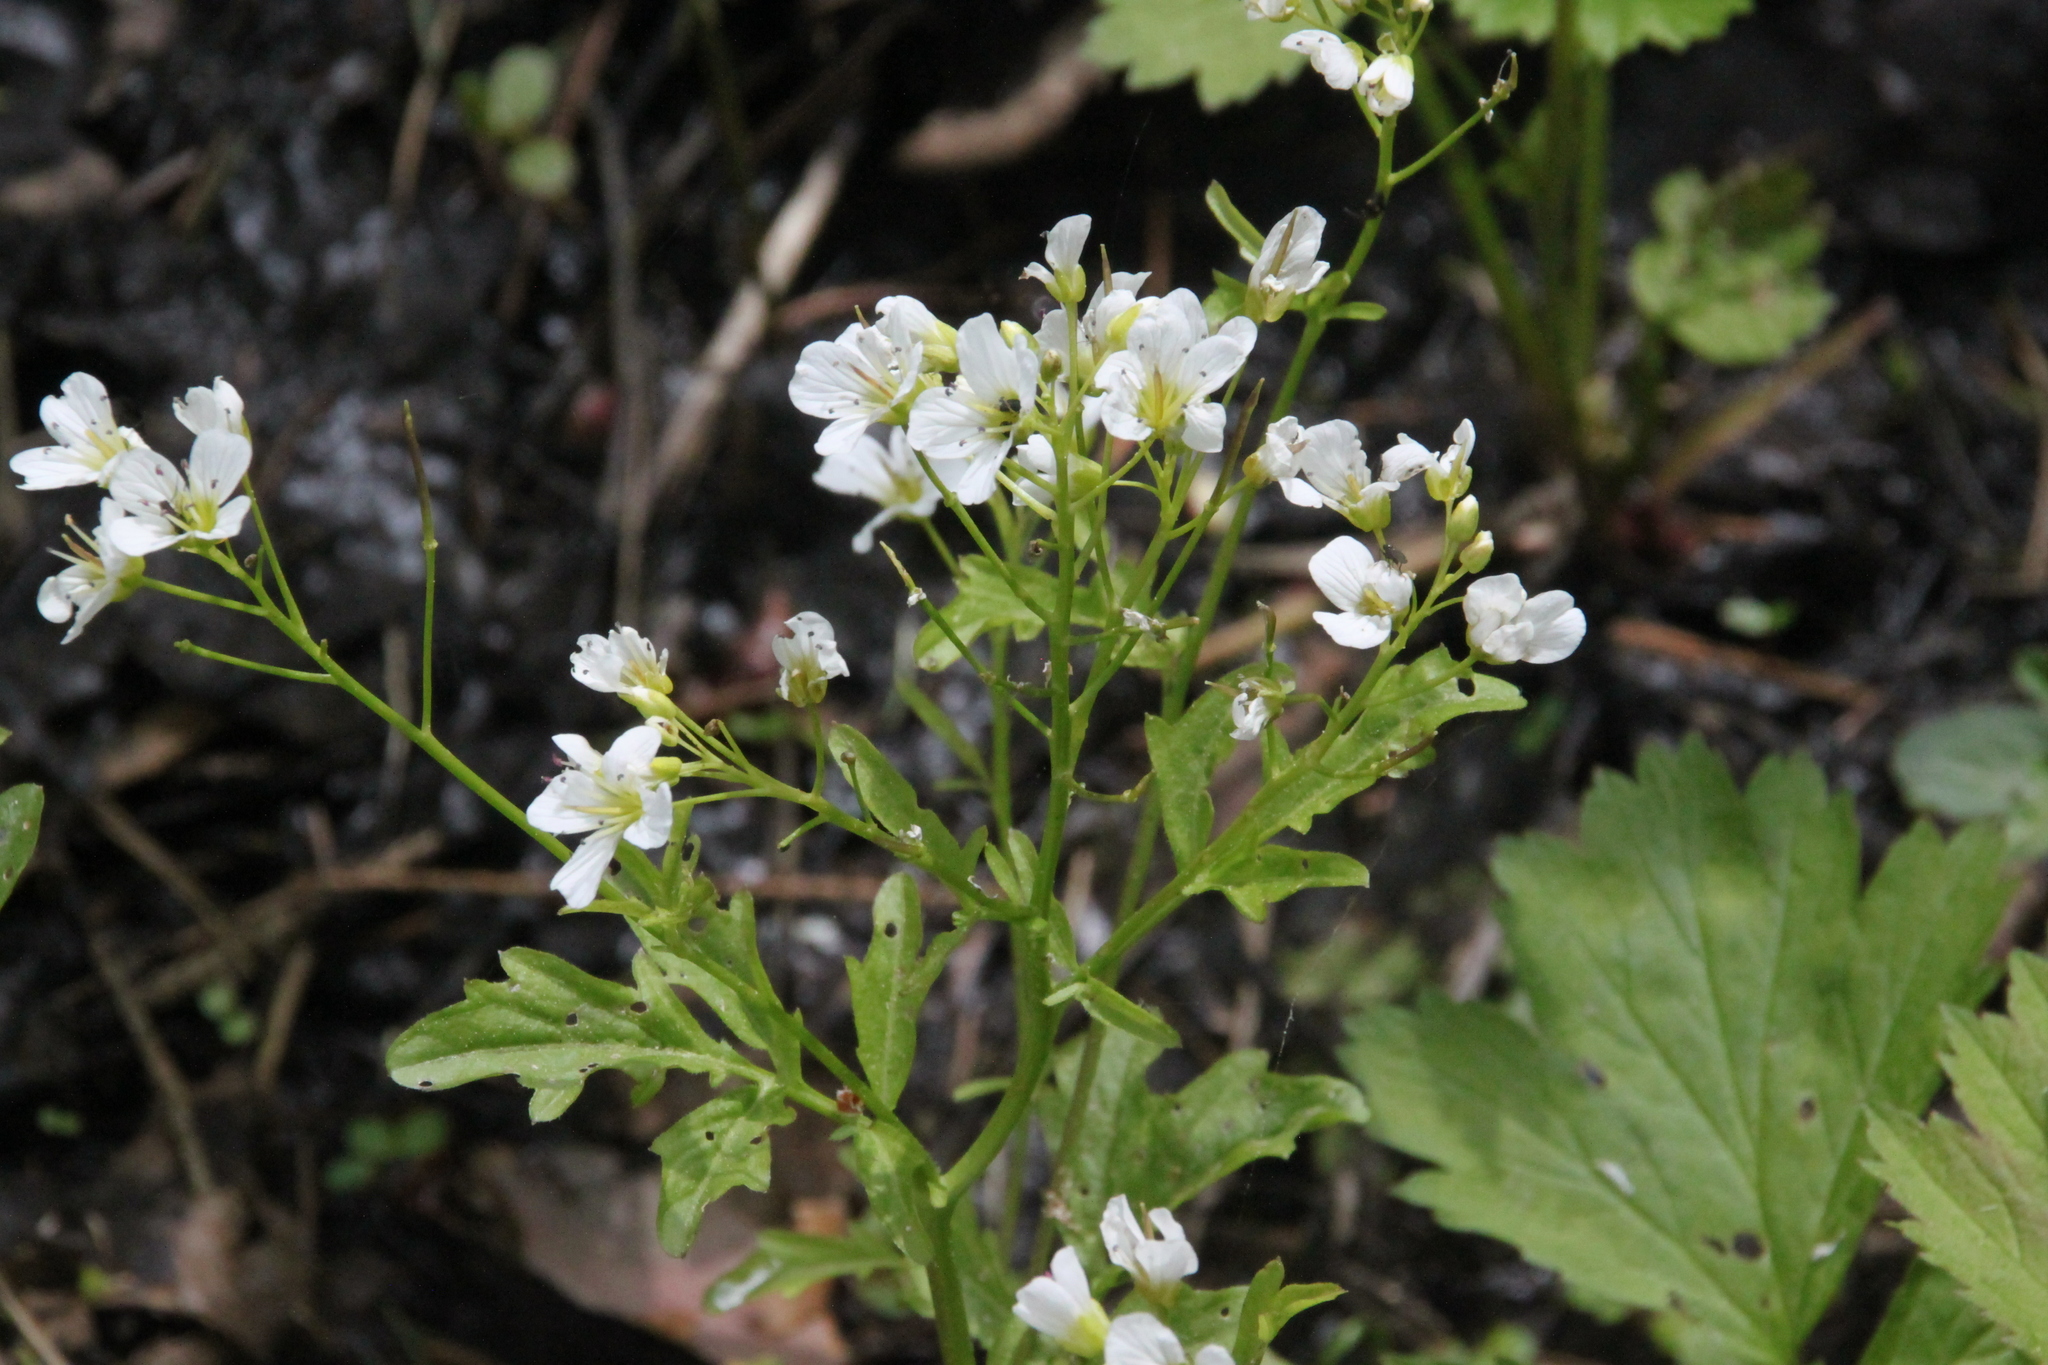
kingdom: Plantae
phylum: Tracheophyta
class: Magnoliopsida
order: Brassicales
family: Brassicaceae
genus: Cardamine
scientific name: Cardamine amara
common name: Large bitter-cress
